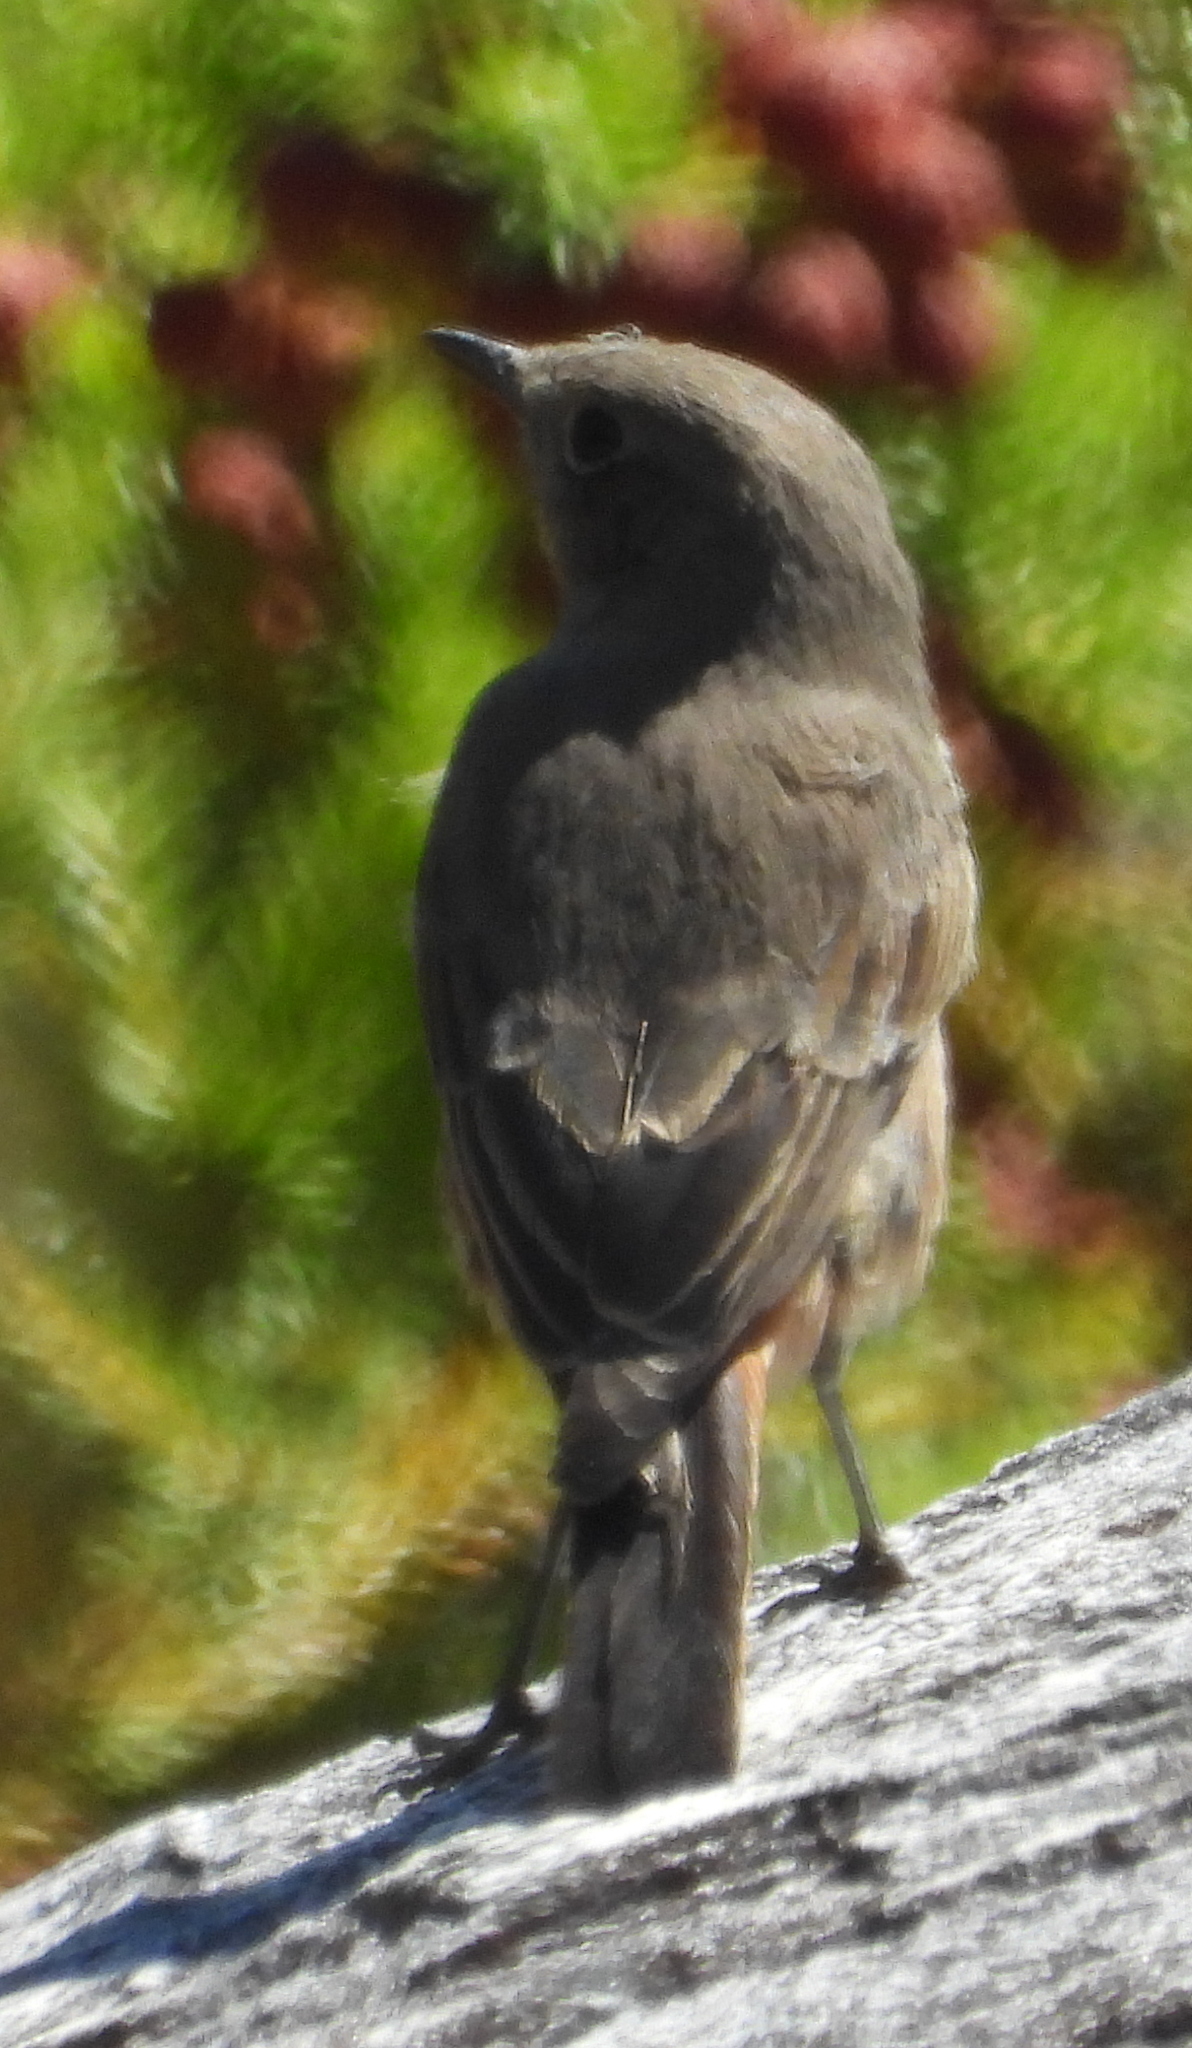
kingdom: Animalia
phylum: Chordata
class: Aves
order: Passeriformes
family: Muscicapidae
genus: Oenanthe
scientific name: Oenanthe familiaris
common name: Familiar chat
